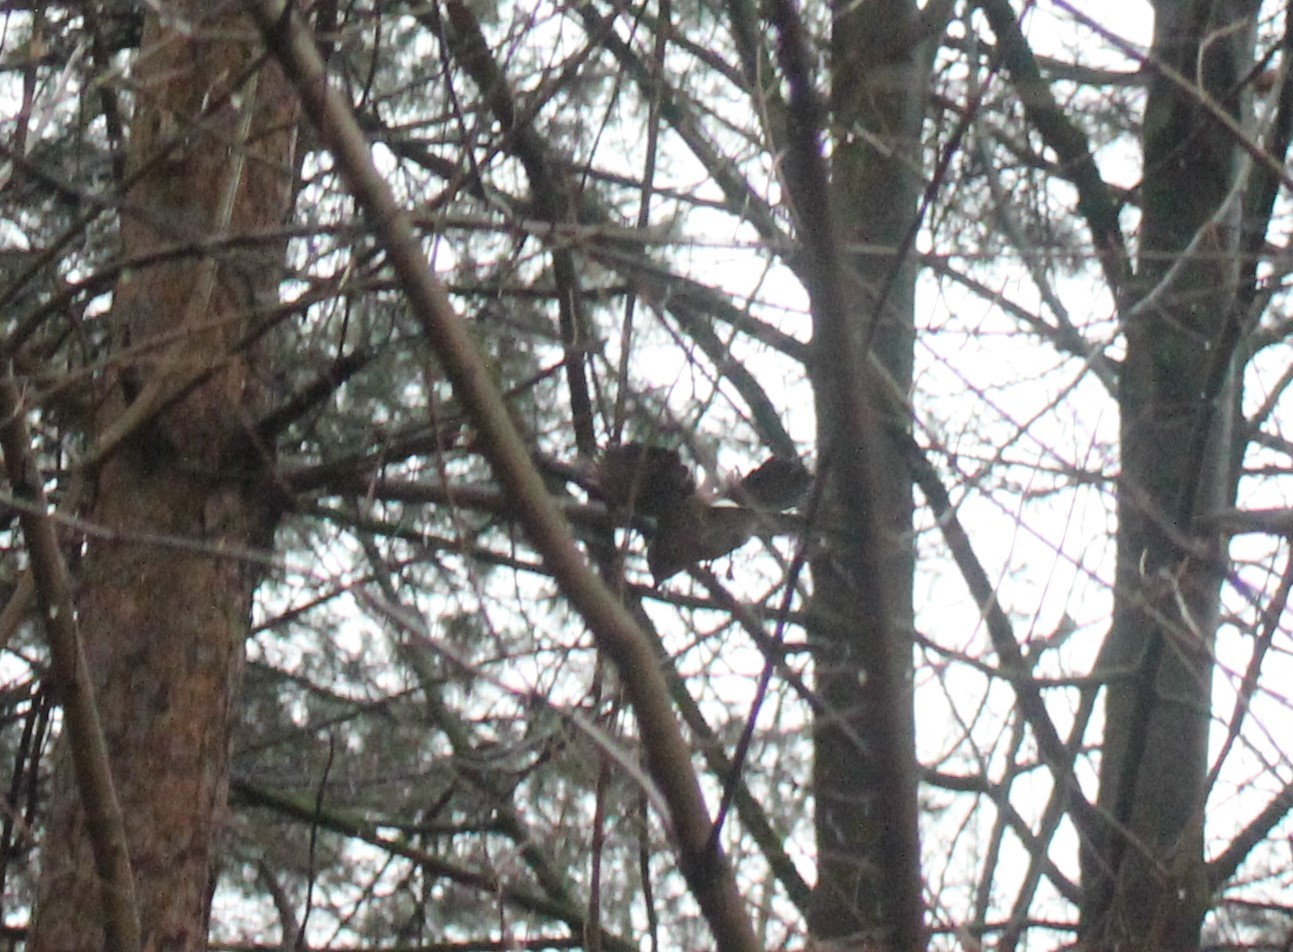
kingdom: Animalia
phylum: Chordata
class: Aves
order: Passeriformes
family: Corvidae
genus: Garrulus
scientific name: Garrulus glandarius
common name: Eurasian jay
